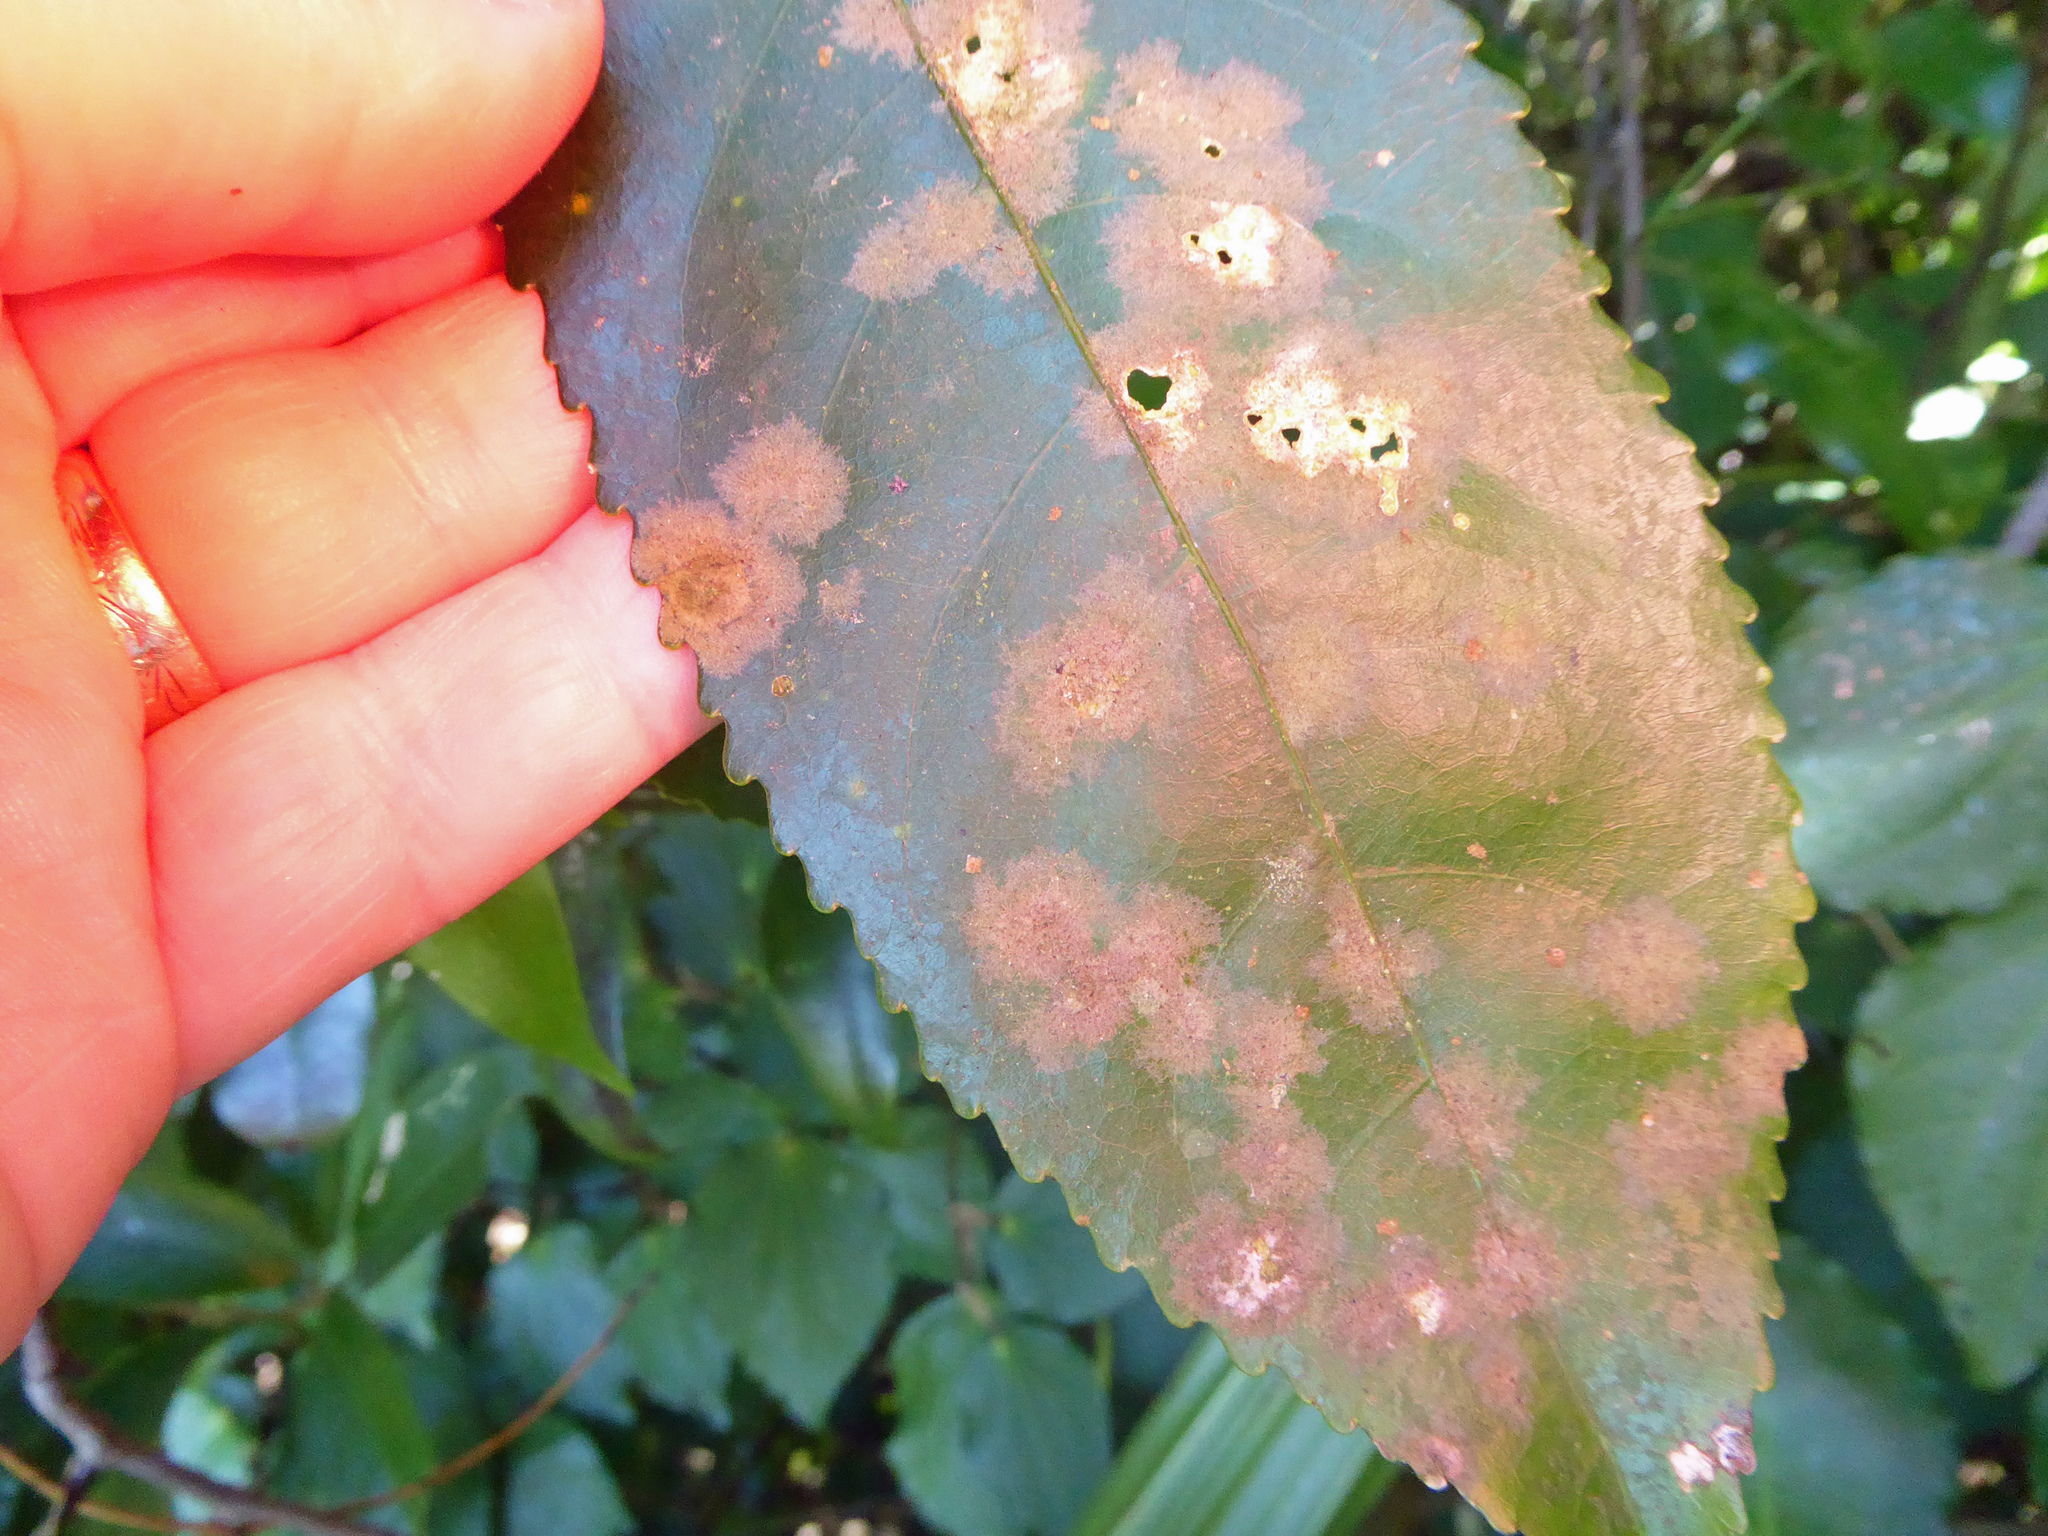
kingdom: Plantae
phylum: Chlorophyta
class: Ulvophyceae
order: Trentepohliales
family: Trentepohliaceae
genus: Cephaleuros
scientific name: Cephaleuros
